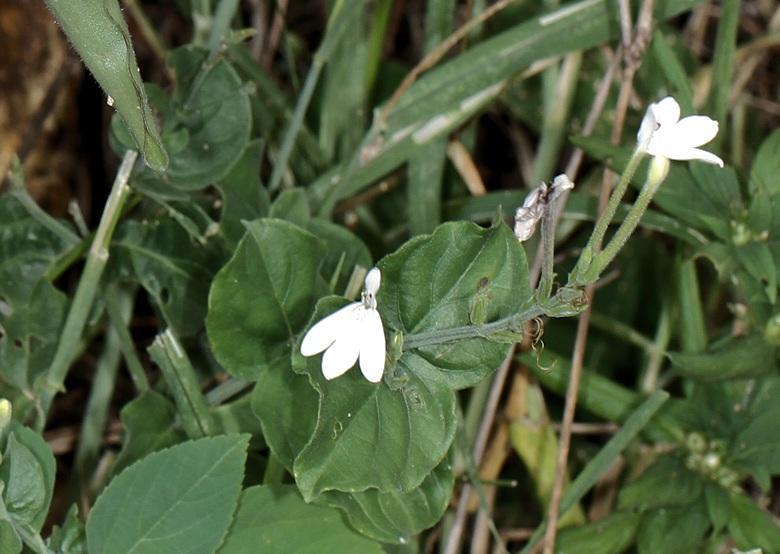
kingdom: Plantae
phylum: Tracheophyta
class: Magnoliopsida
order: Lamiales
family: Acanthaceae
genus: Rhinacanthus
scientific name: Rhinacanthus xerophilus
